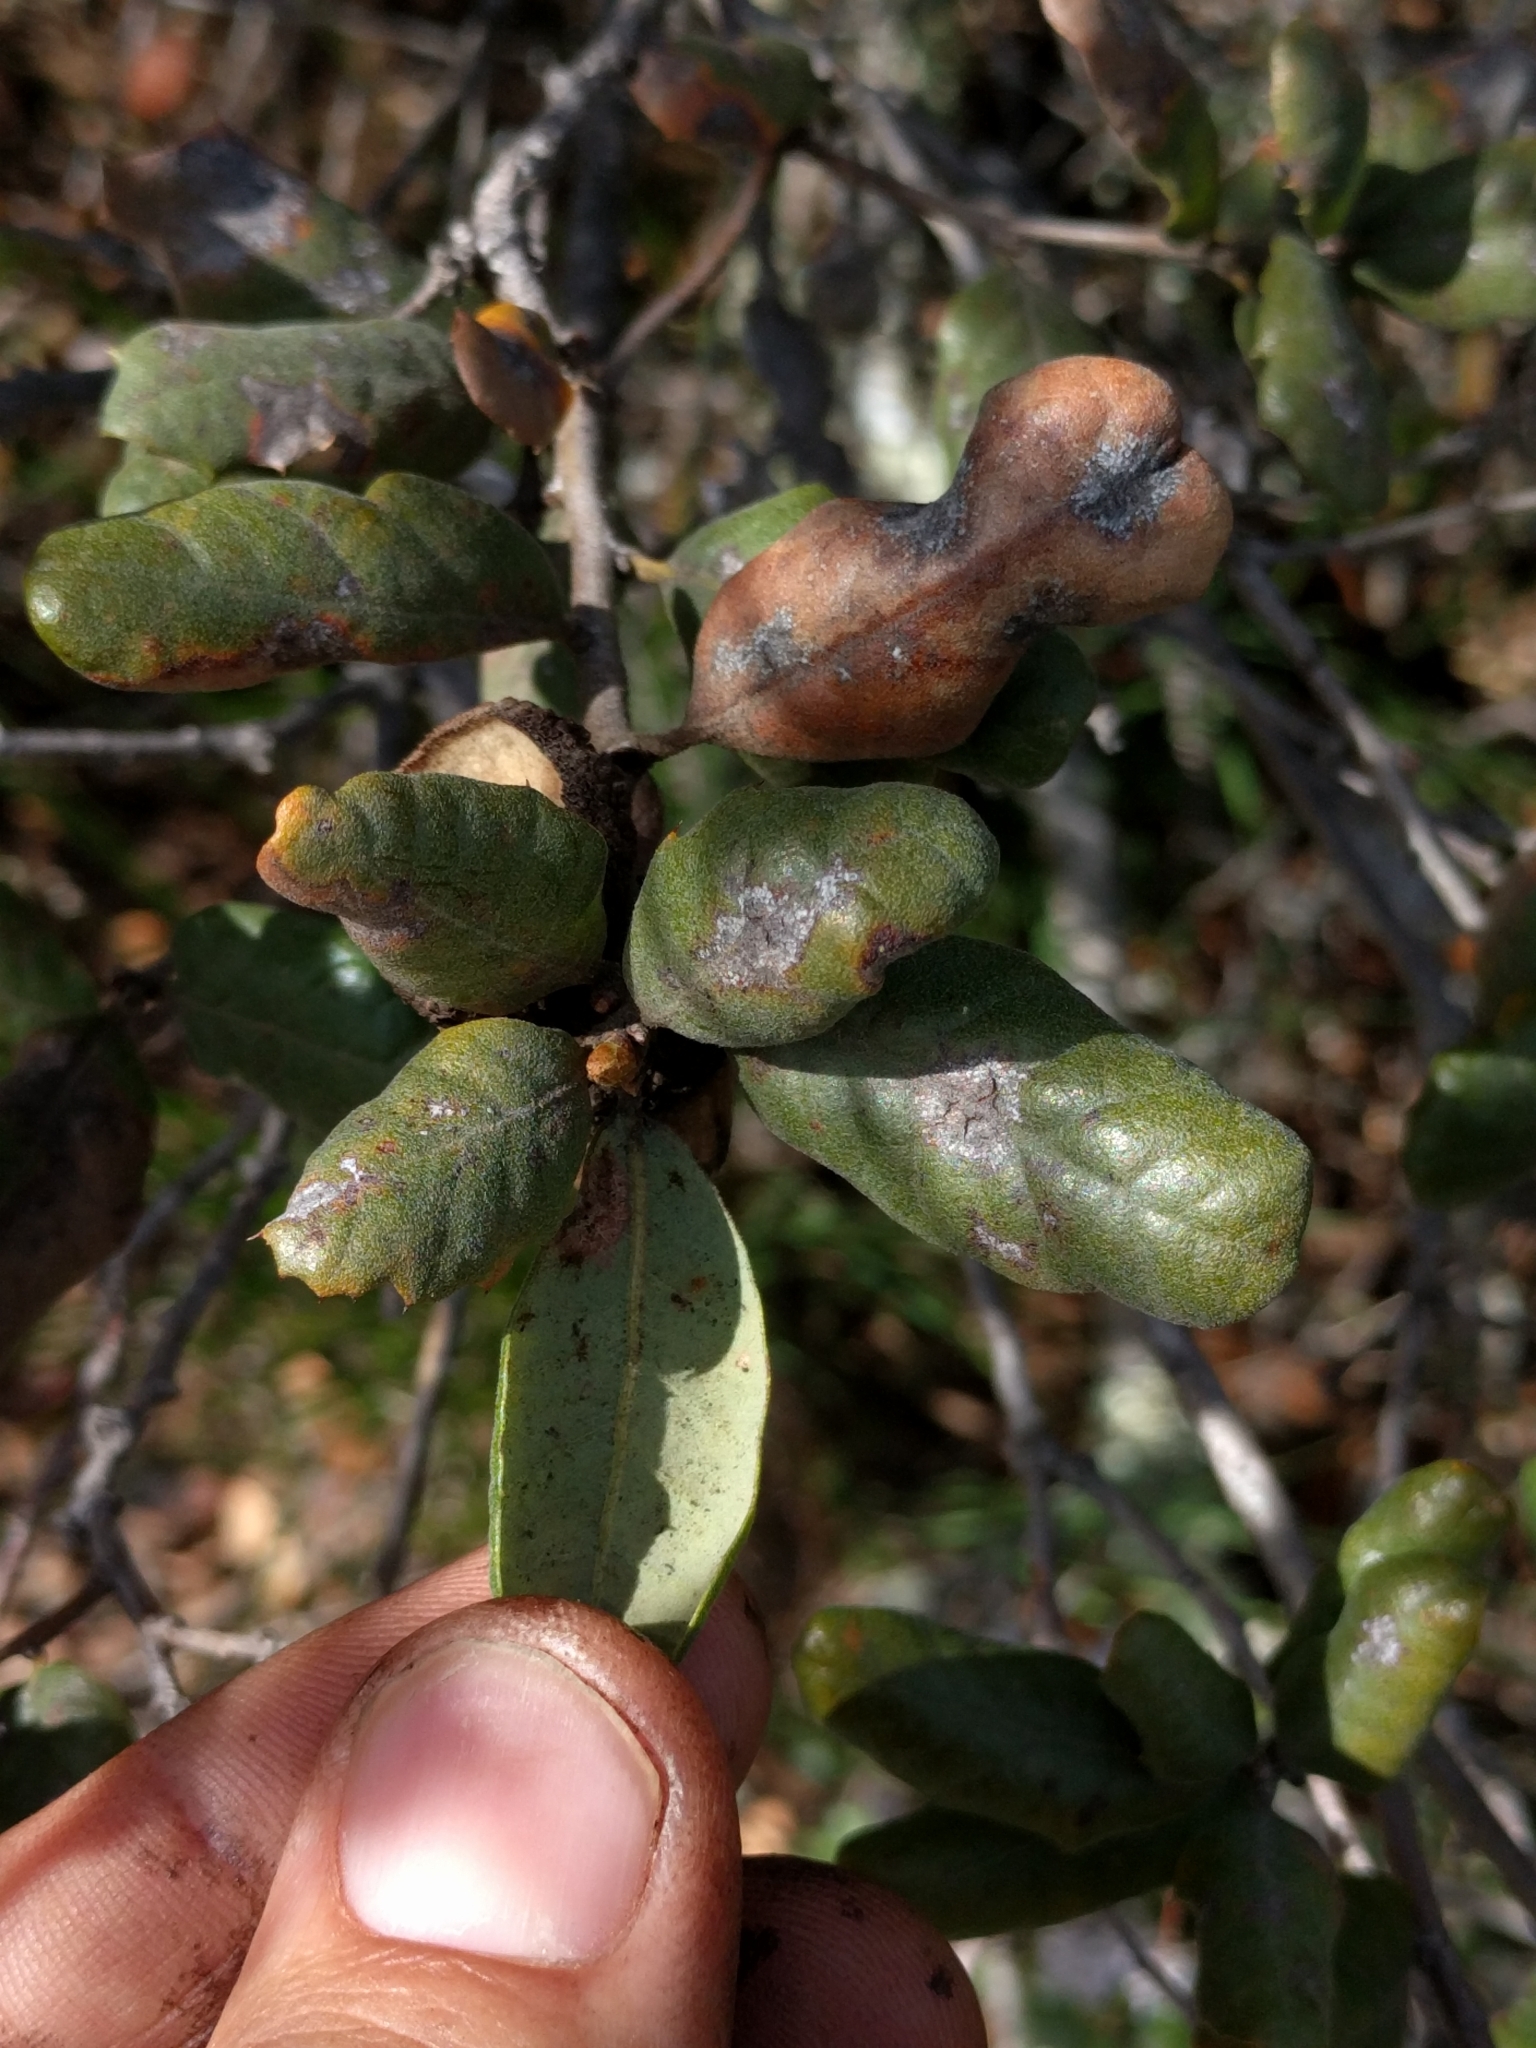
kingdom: Plantae
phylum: Tracheophyta
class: Magnoliopsida
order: Fagales
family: Fagaceae
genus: Quercus
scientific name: Quercus durata
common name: Leather oak
